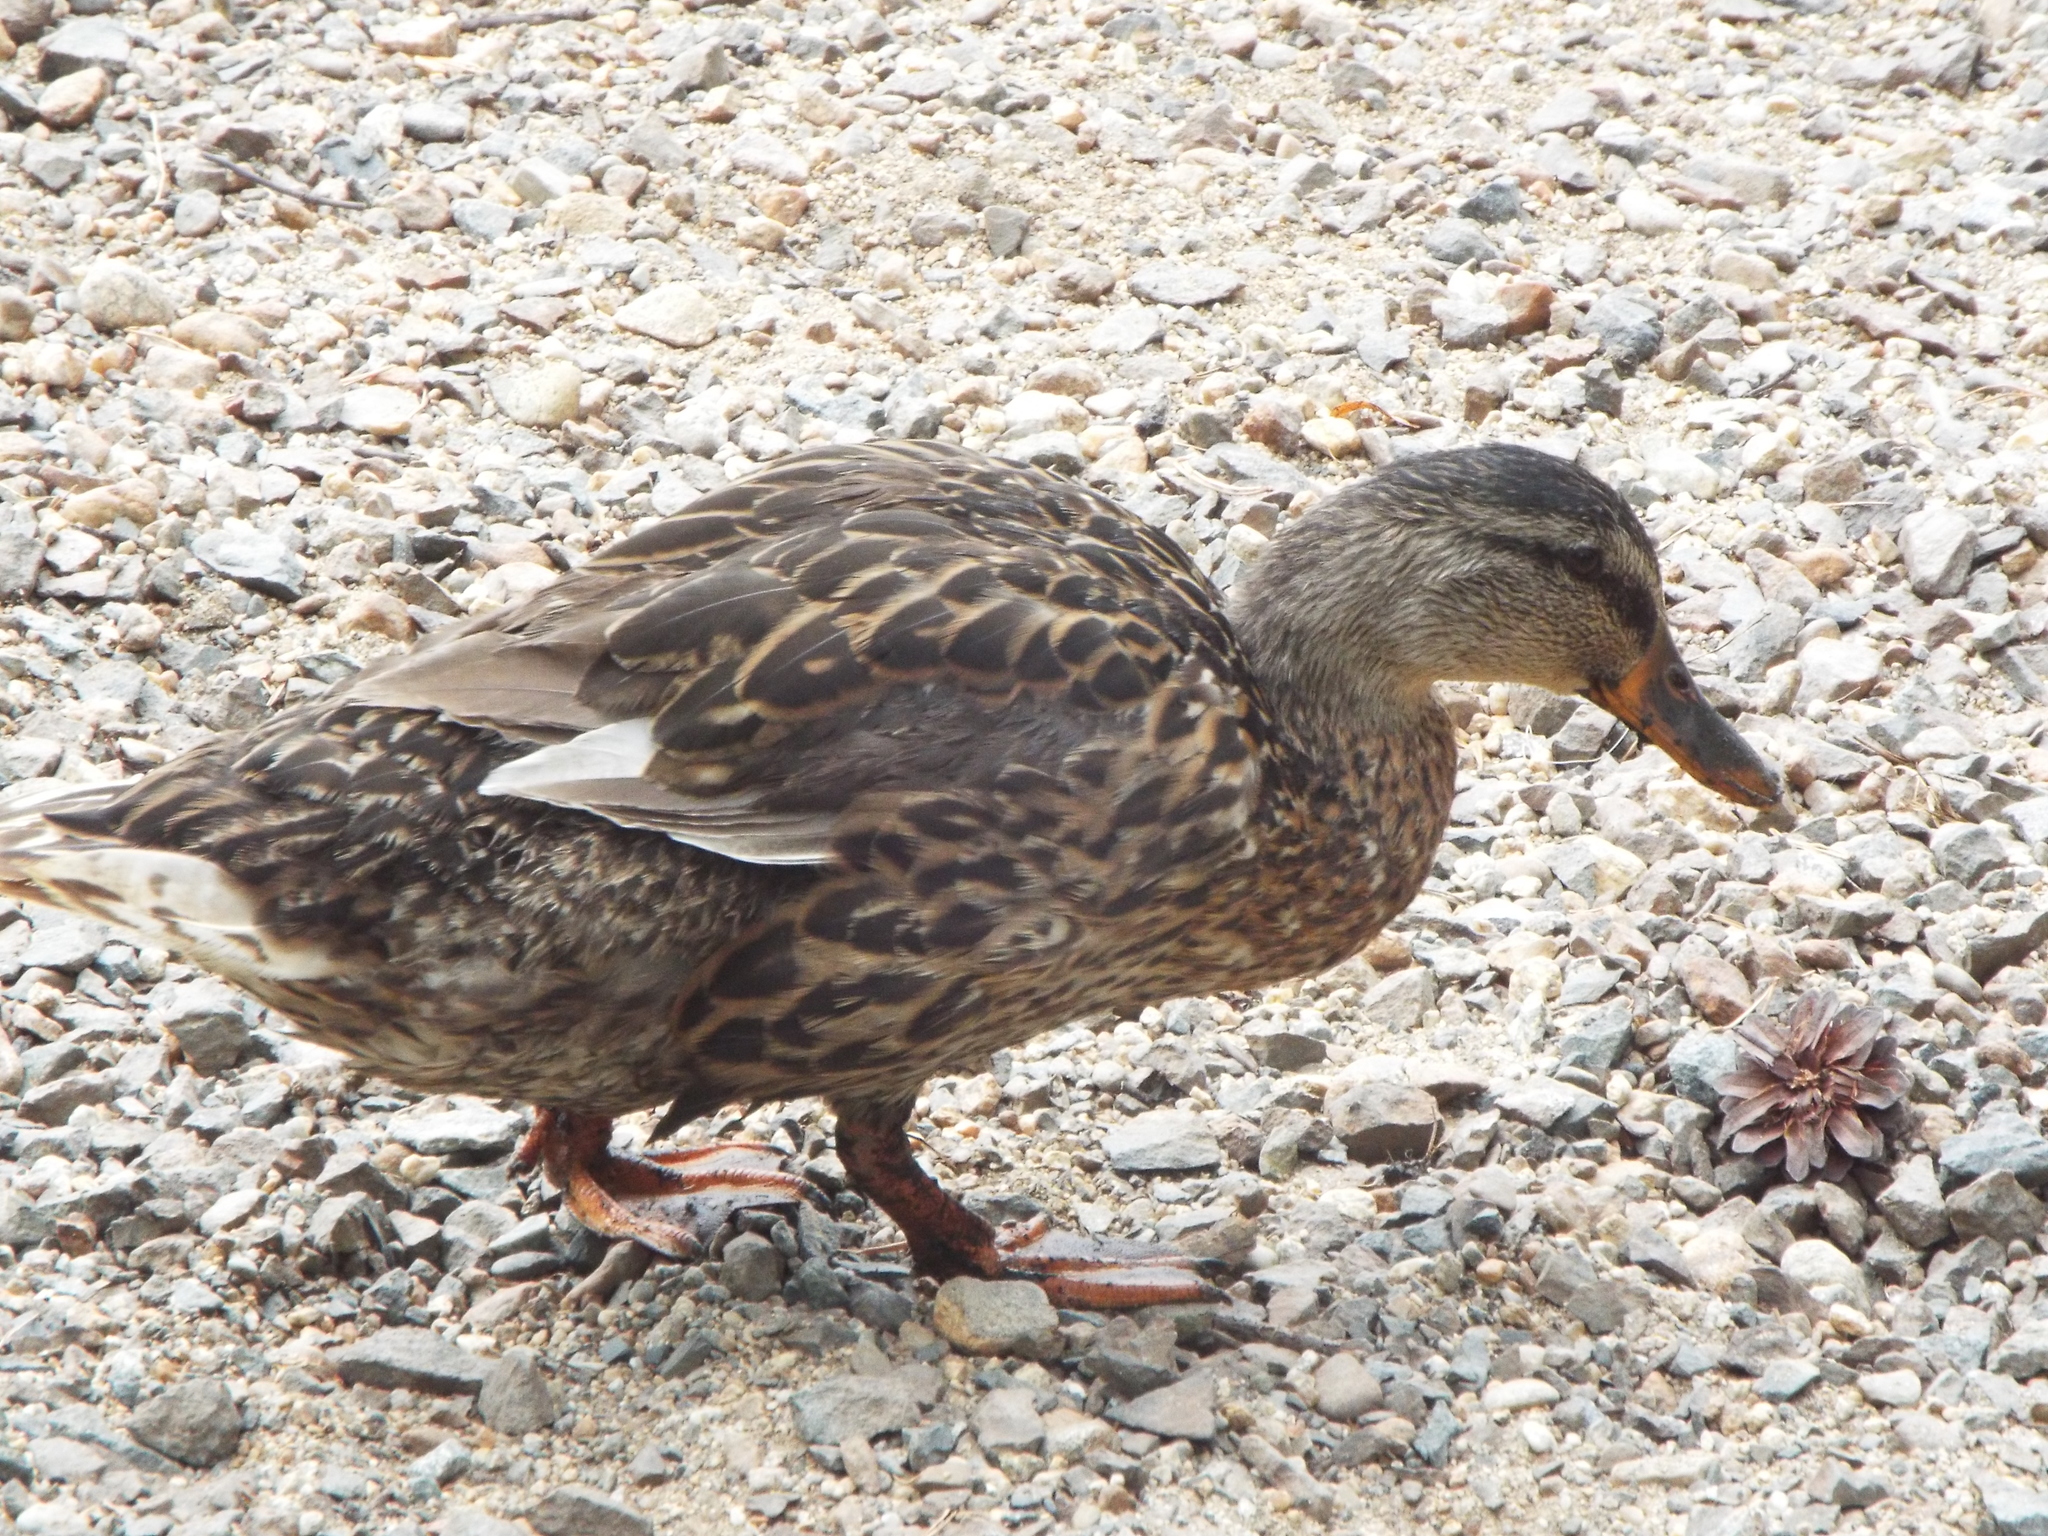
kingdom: Animalia
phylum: Chordata
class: Aves
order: Anseriformes
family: Anatidae
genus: Anas
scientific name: Anas platyrhynchos
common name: Mallard
